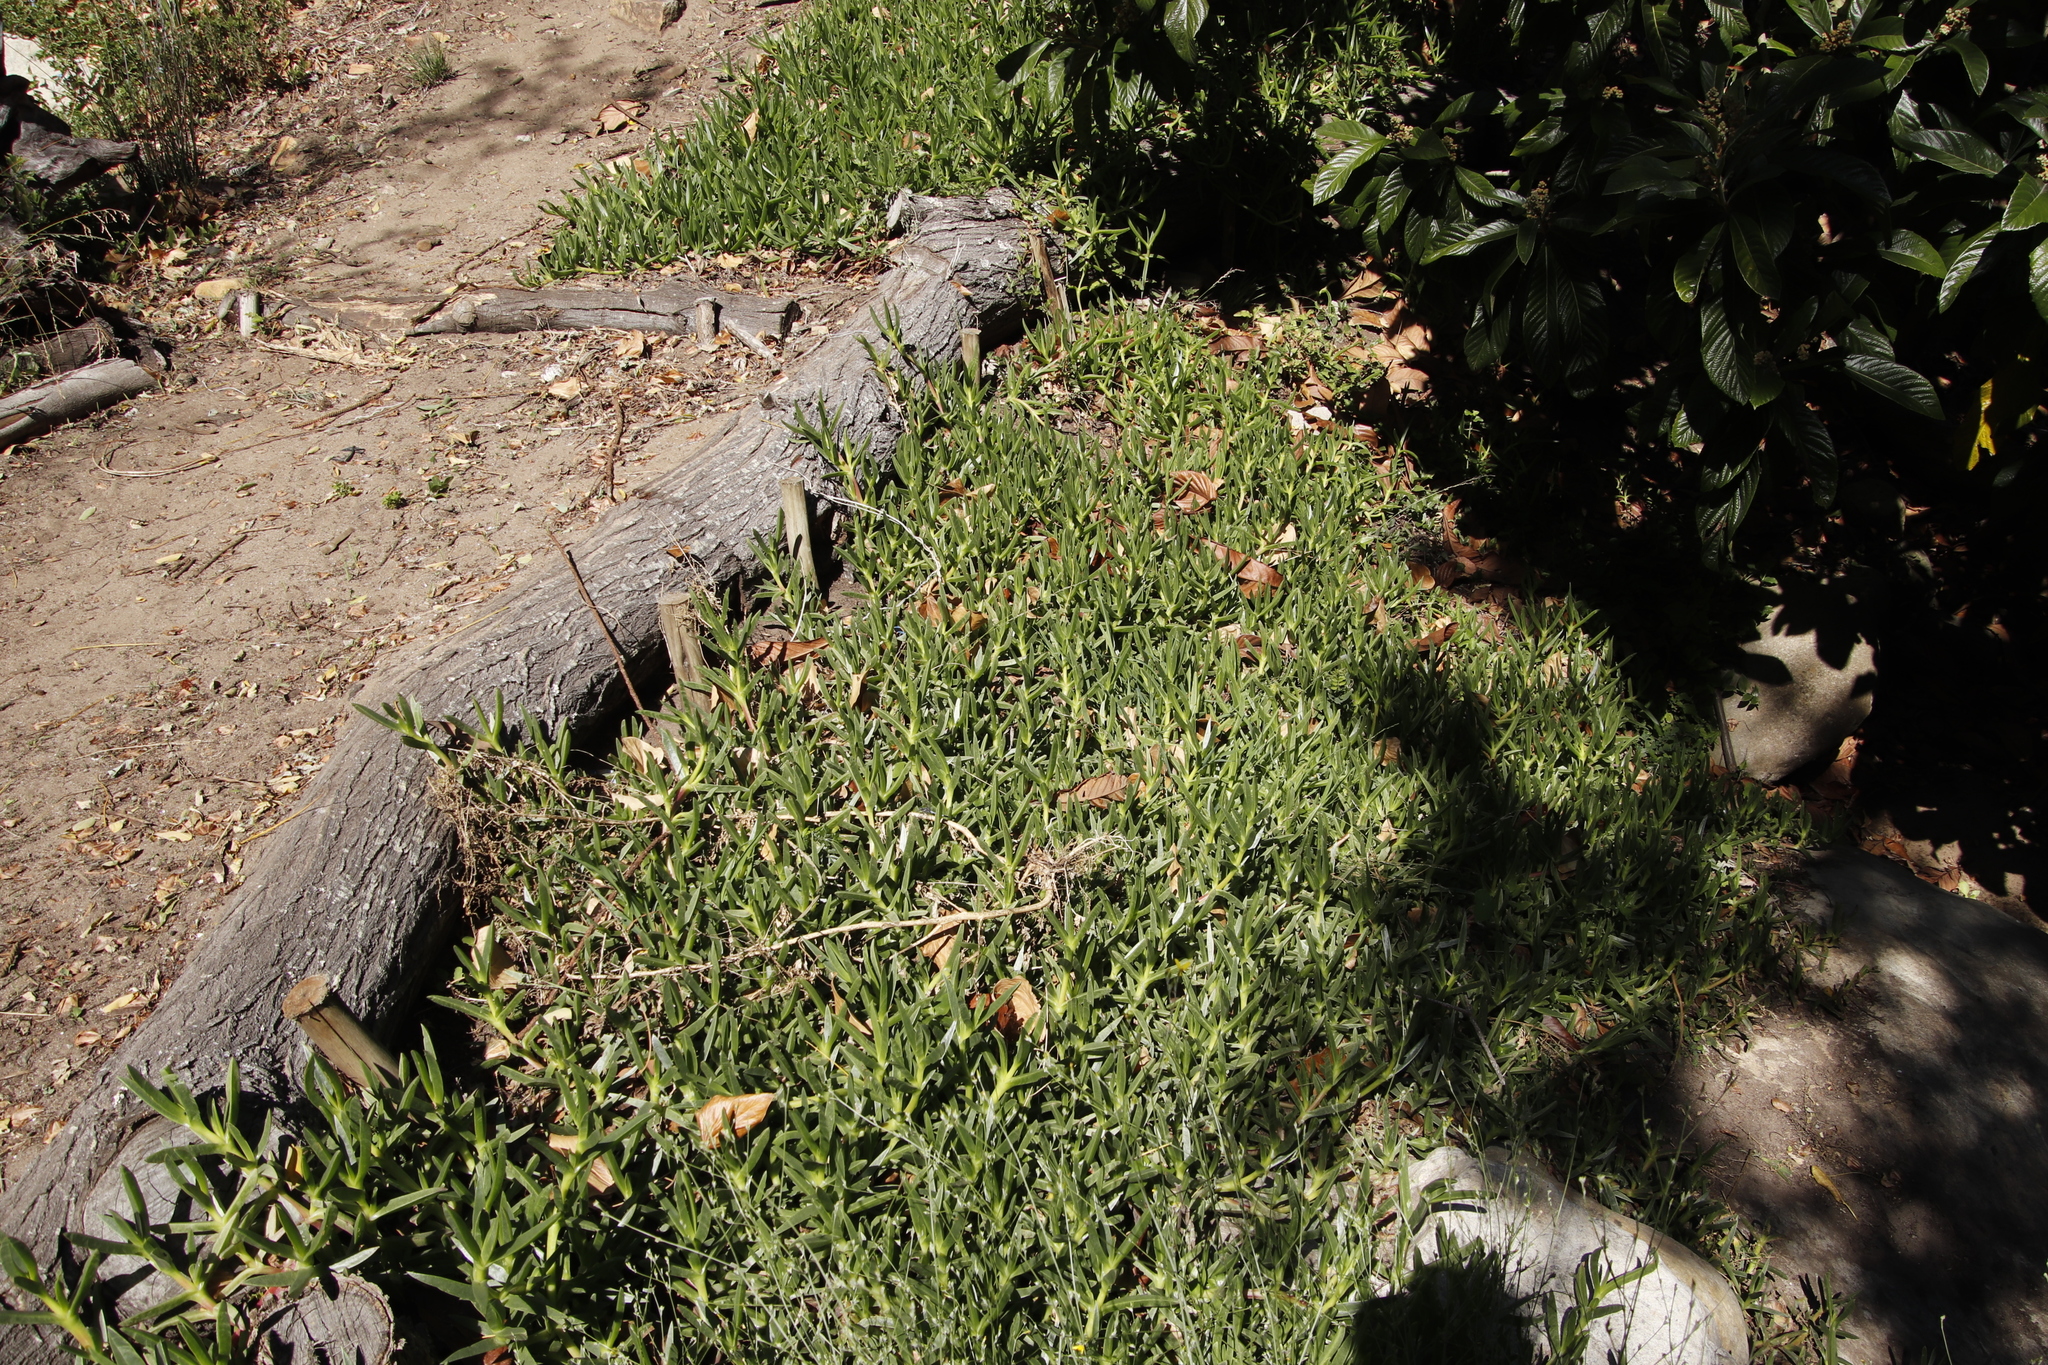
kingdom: Plantae
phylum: Tracheophyta
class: Magnoliopsida
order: Caryophyllales
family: Aizoaceae
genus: Carpobrotus
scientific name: Carpobrotus edulis
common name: Hottentot-fig
